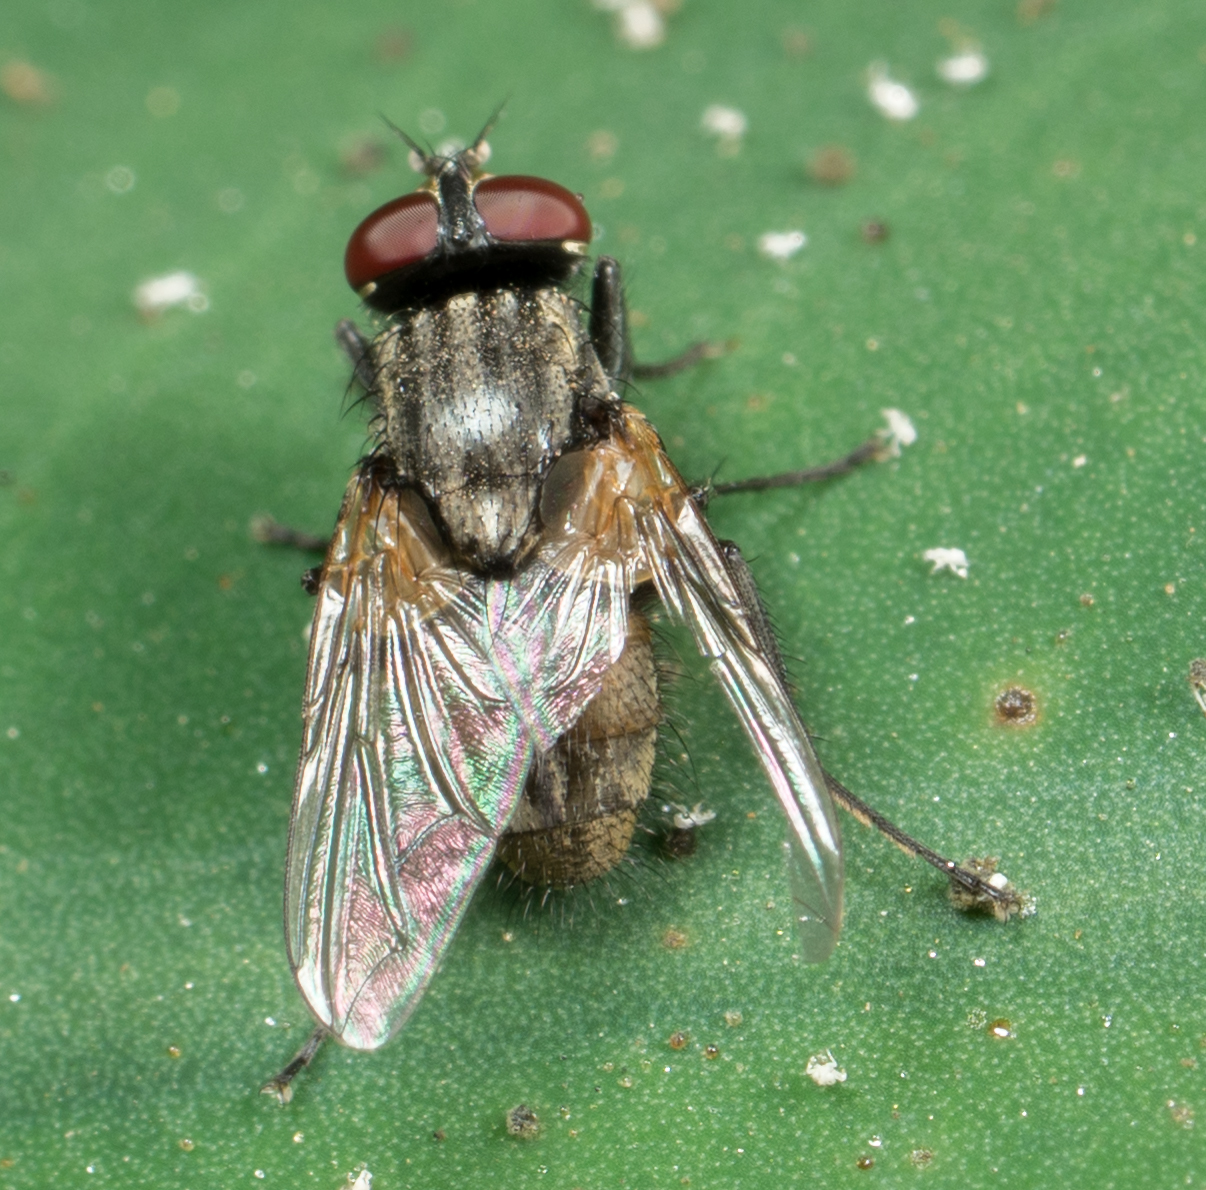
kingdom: Animalia
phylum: Arthropoda
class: Insecta
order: Diptera
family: Muscidae
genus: Musca
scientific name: Musca domestica
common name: House fly
